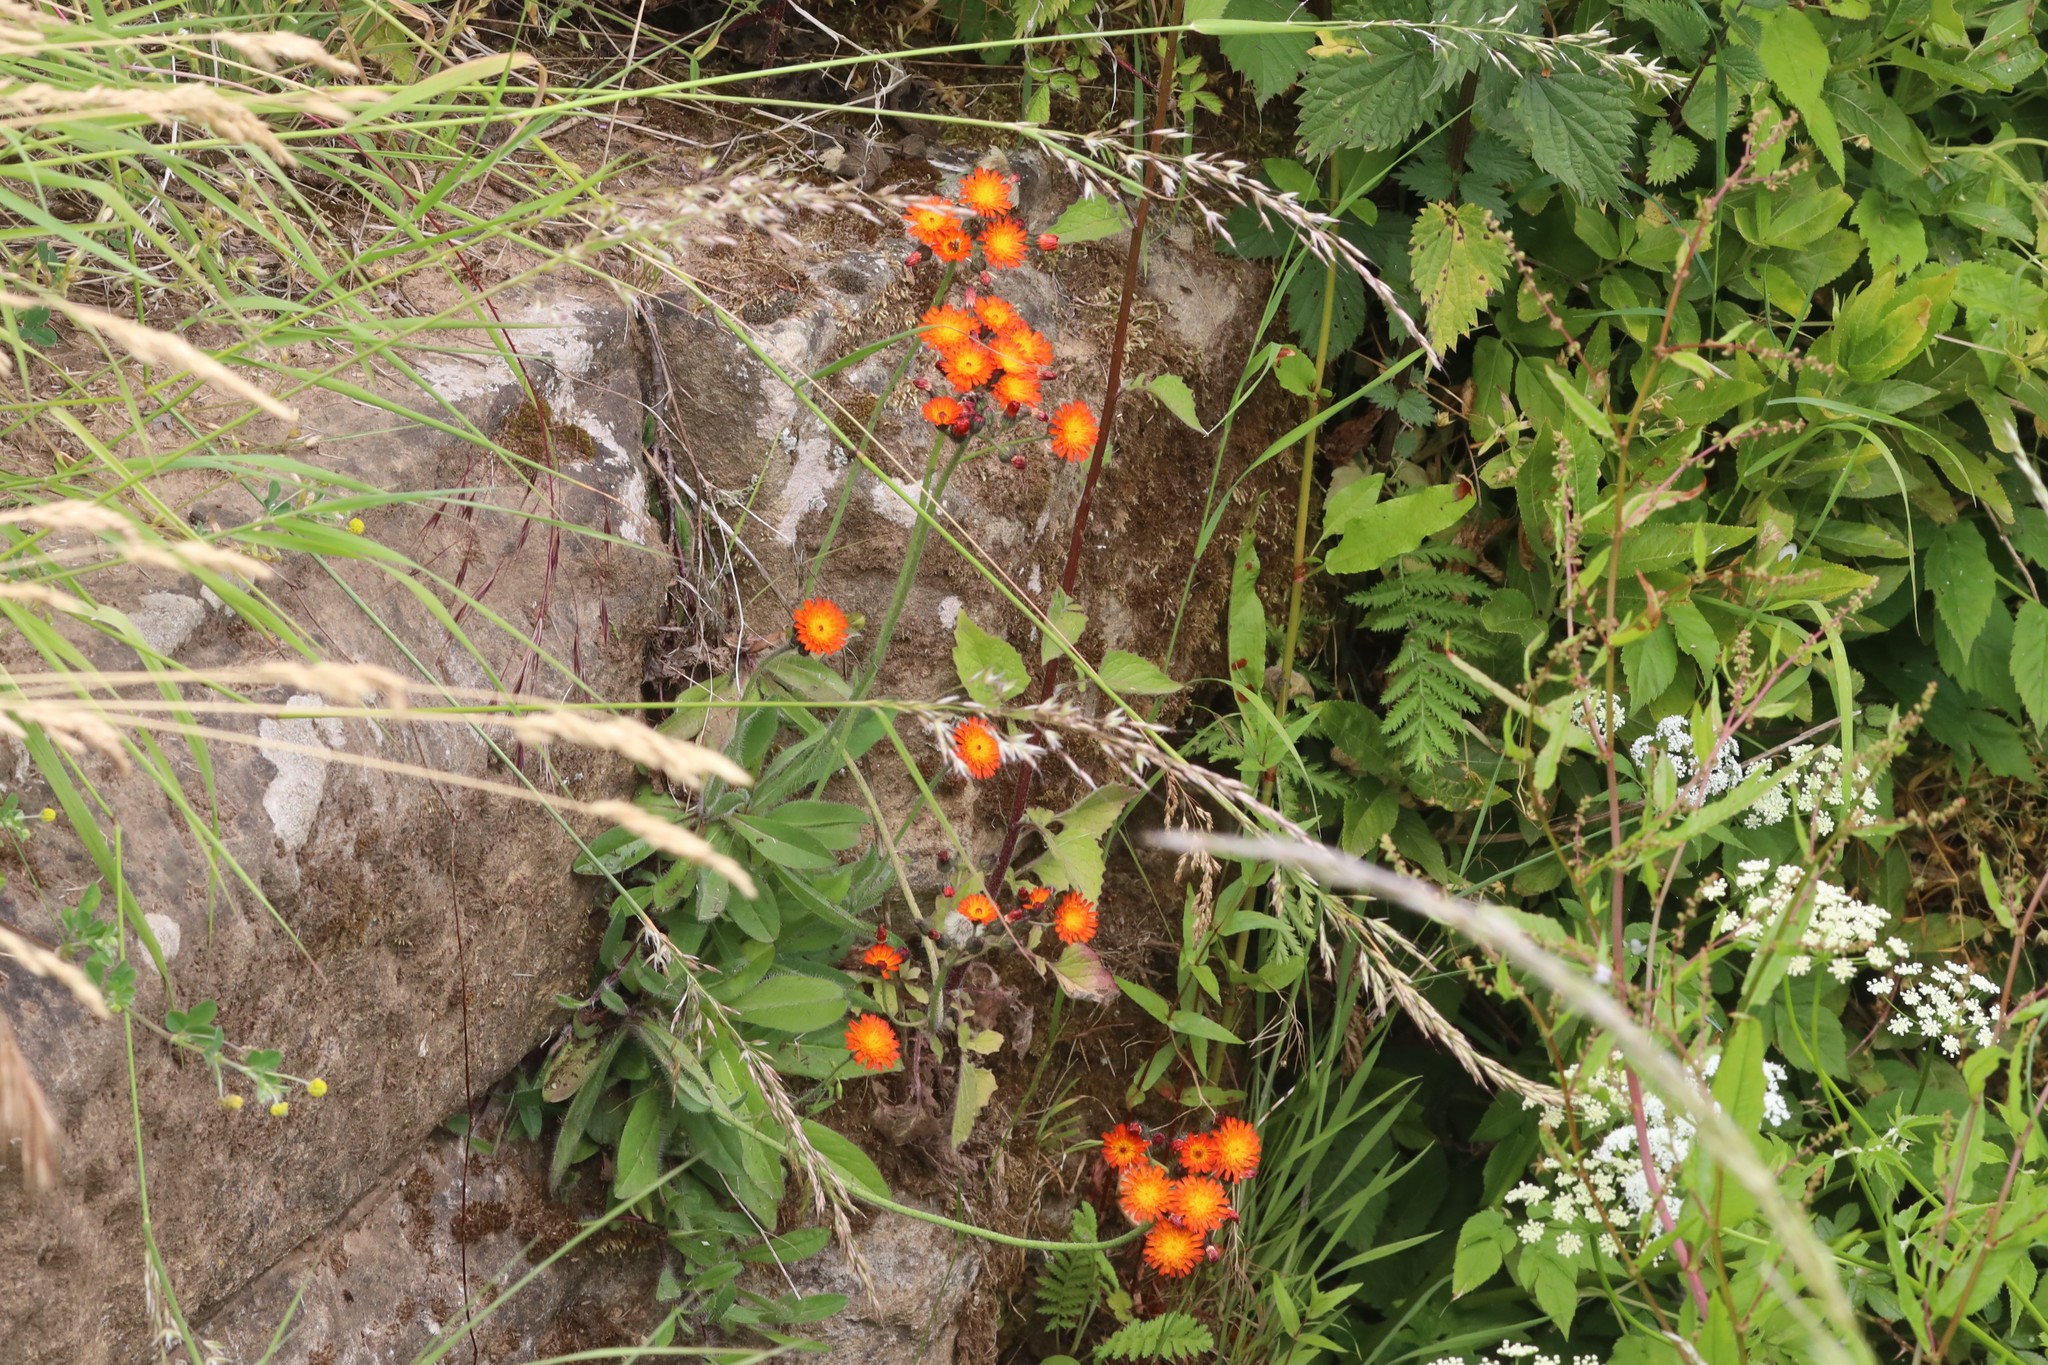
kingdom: Plantae
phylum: Tracheophyta
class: Magnoliopsida
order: Asterales
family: Asteraceae
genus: Pilosella
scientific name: Pilosella aurantiaca
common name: Fox-and-cubs
